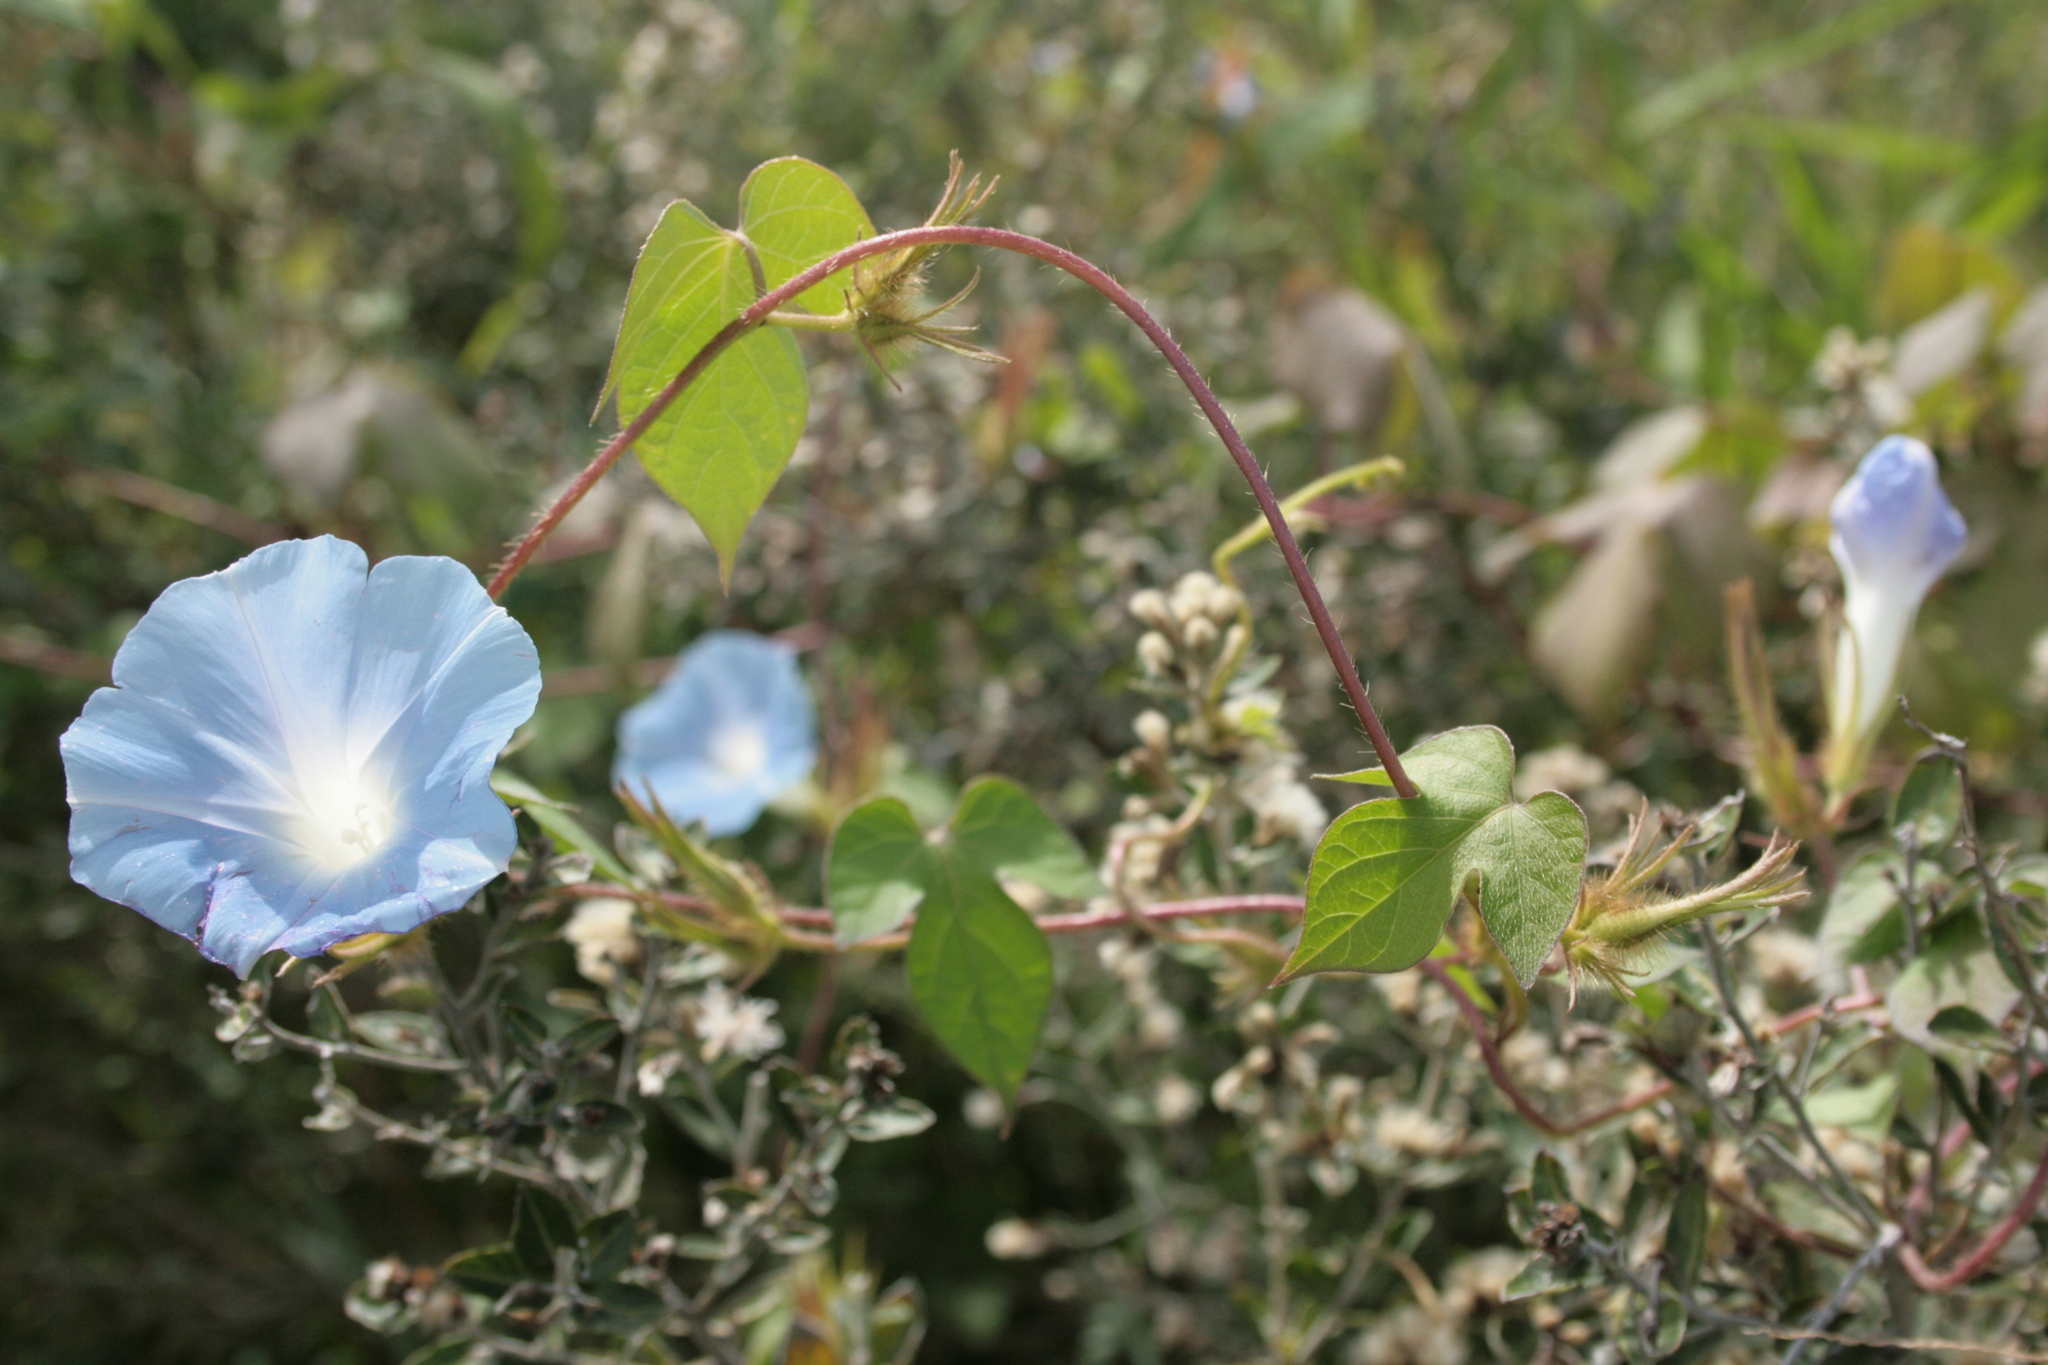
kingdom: Plantae
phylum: Tracheophyta
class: Magnoliopsida
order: Solanales
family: Convolvulaceae
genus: Ipomoea
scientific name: Ipomoea nil
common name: Japanese morning-glory
